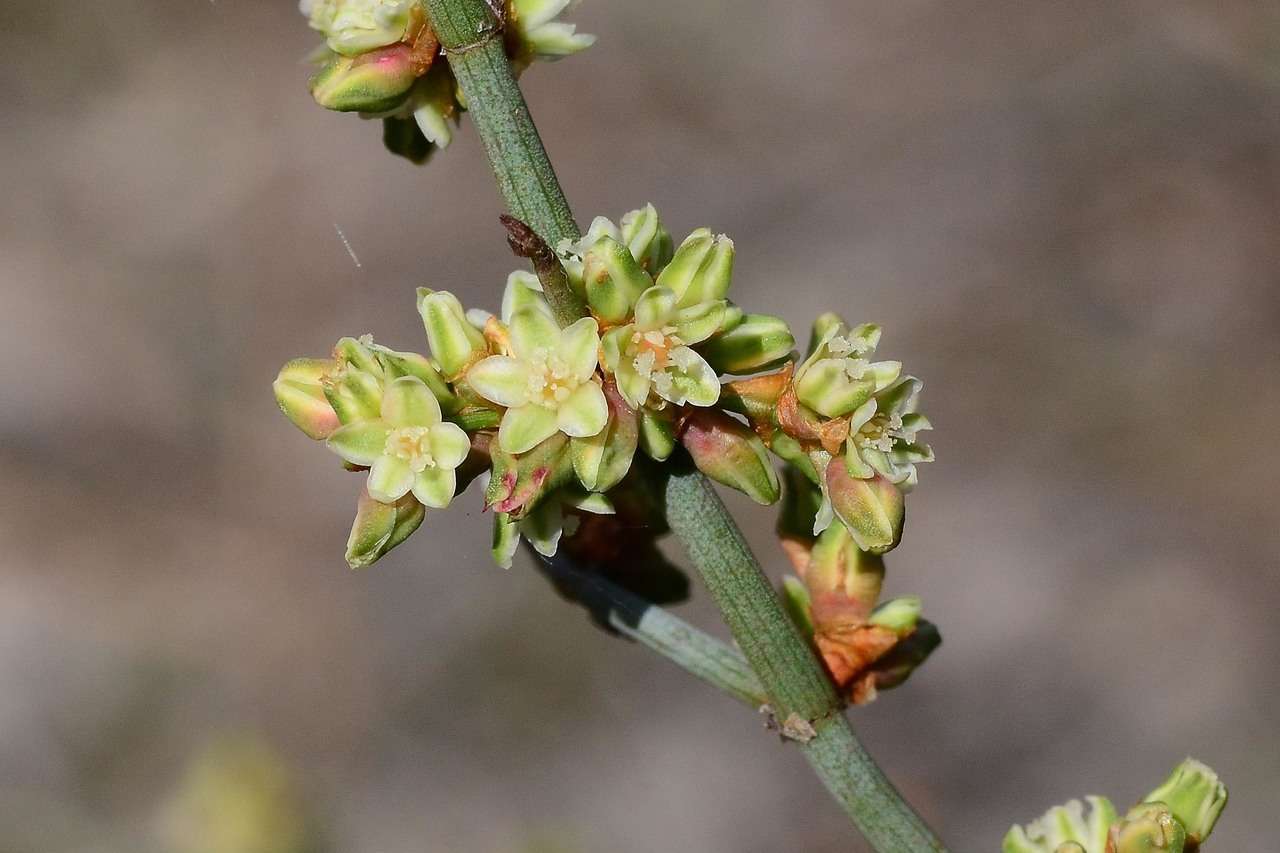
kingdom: Plantae
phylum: Tracheophyta
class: Magnoliopsida
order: Caryophyllales
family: Polygonaceae
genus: Duma
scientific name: Duma florulenta
